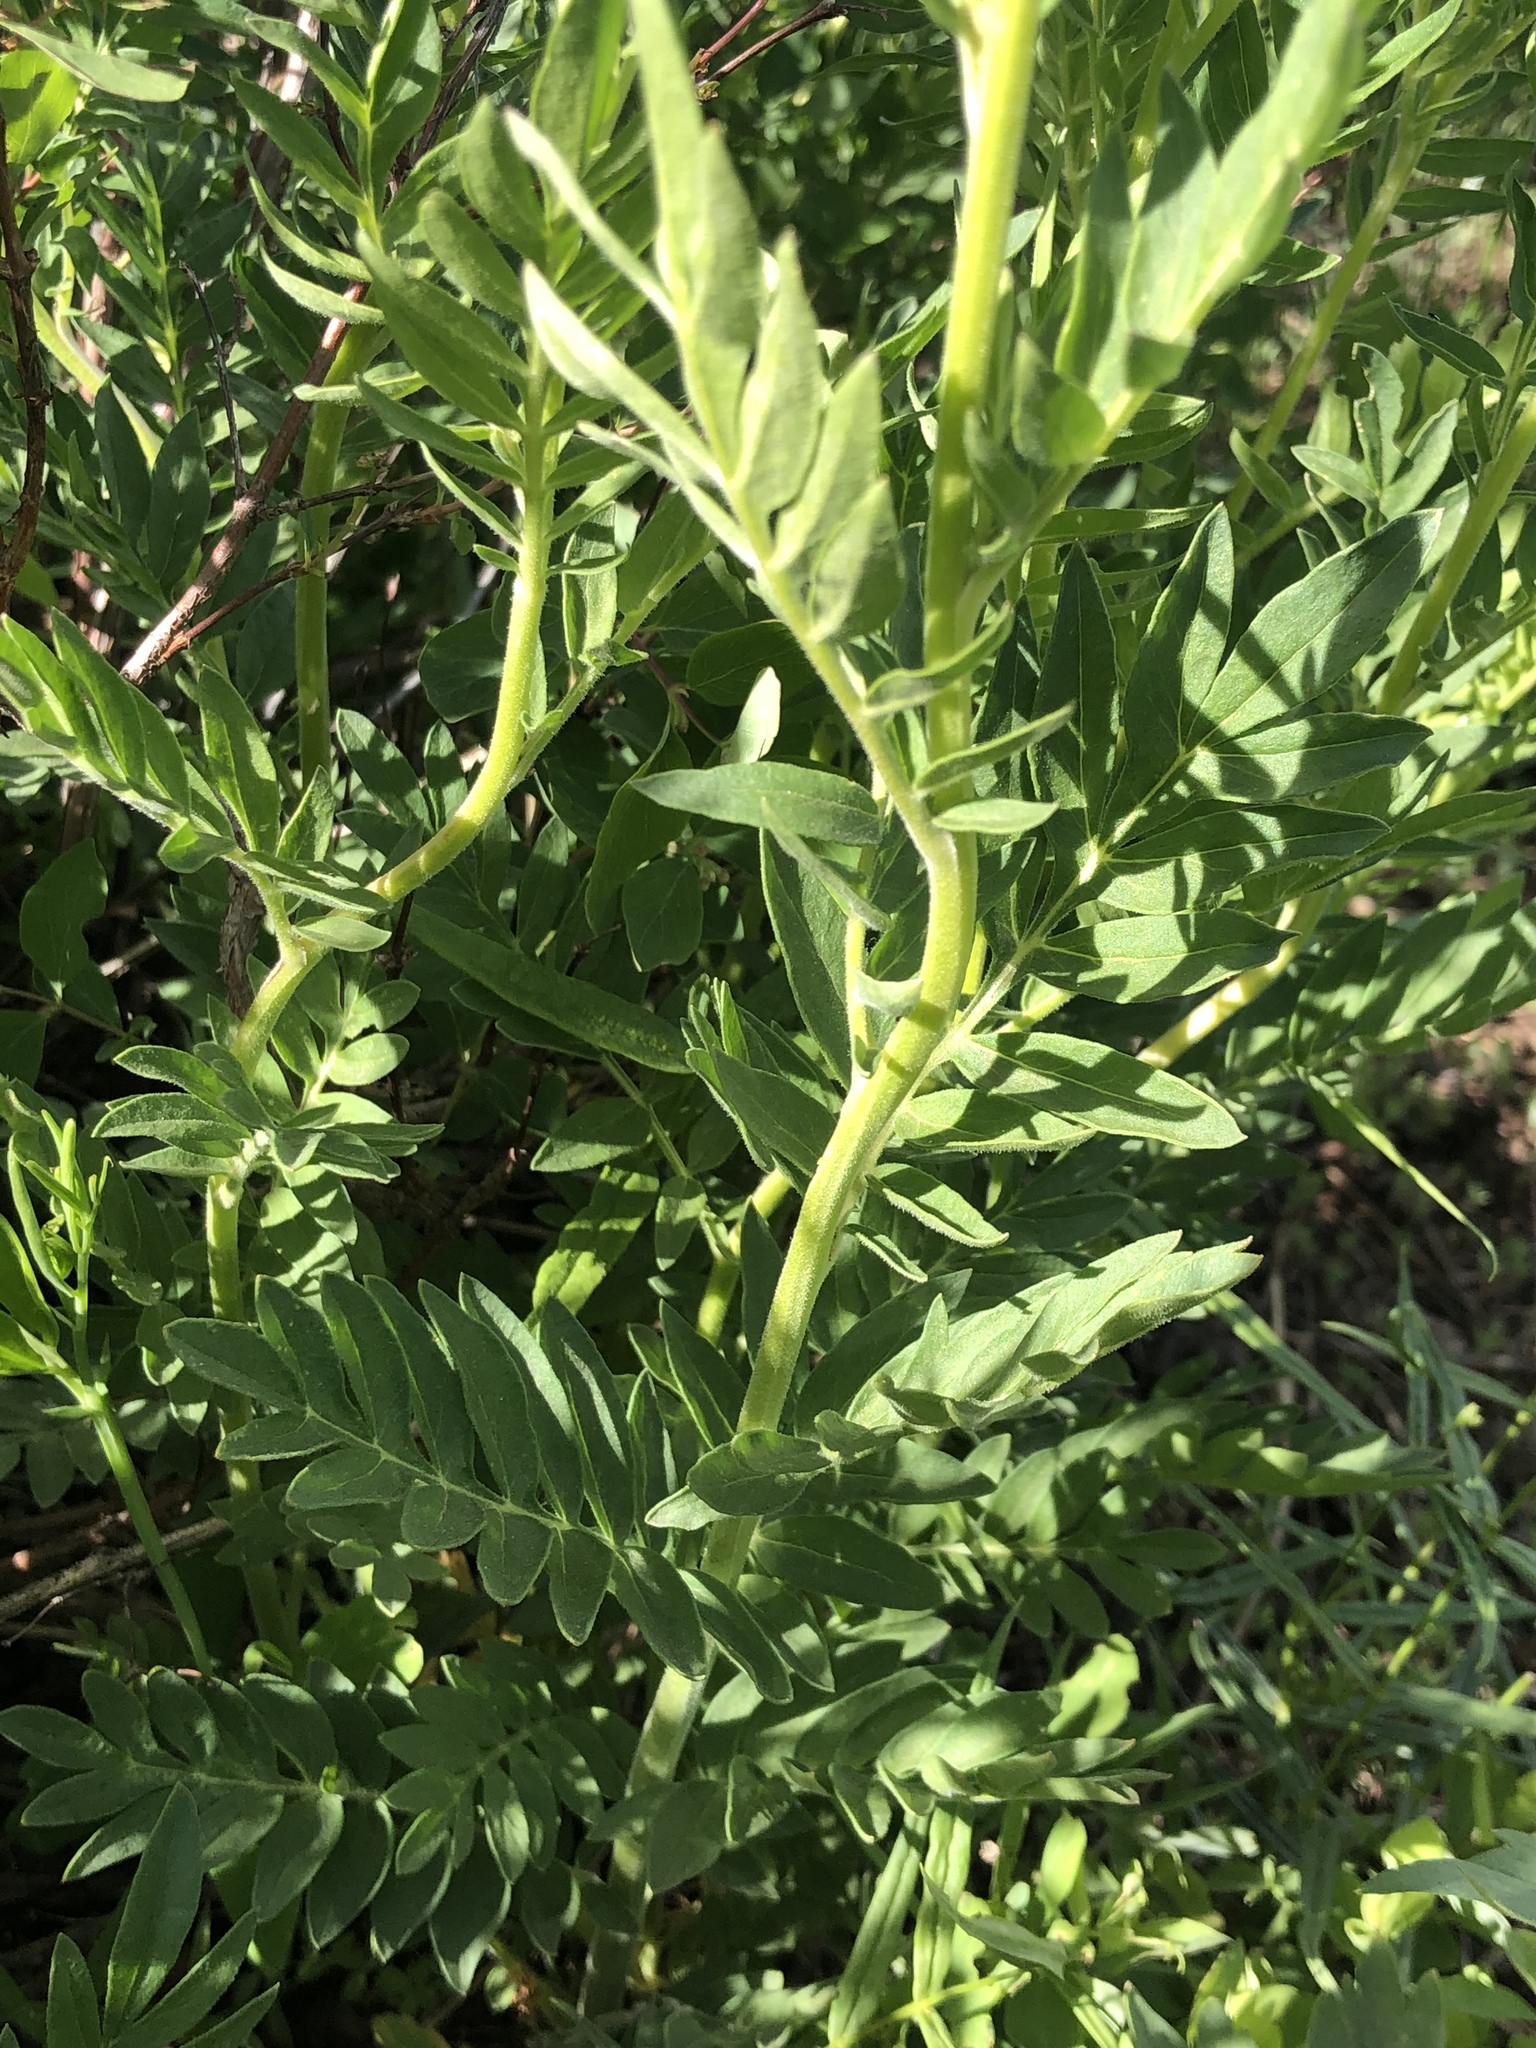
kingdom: Plantae
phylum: Tracheophyta
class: Magnoliopsida
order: Ericales
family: Polemoniaceae
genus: Polemonium
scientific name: Polemonium foliosissimum
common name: Leafy jacob's-ladder
